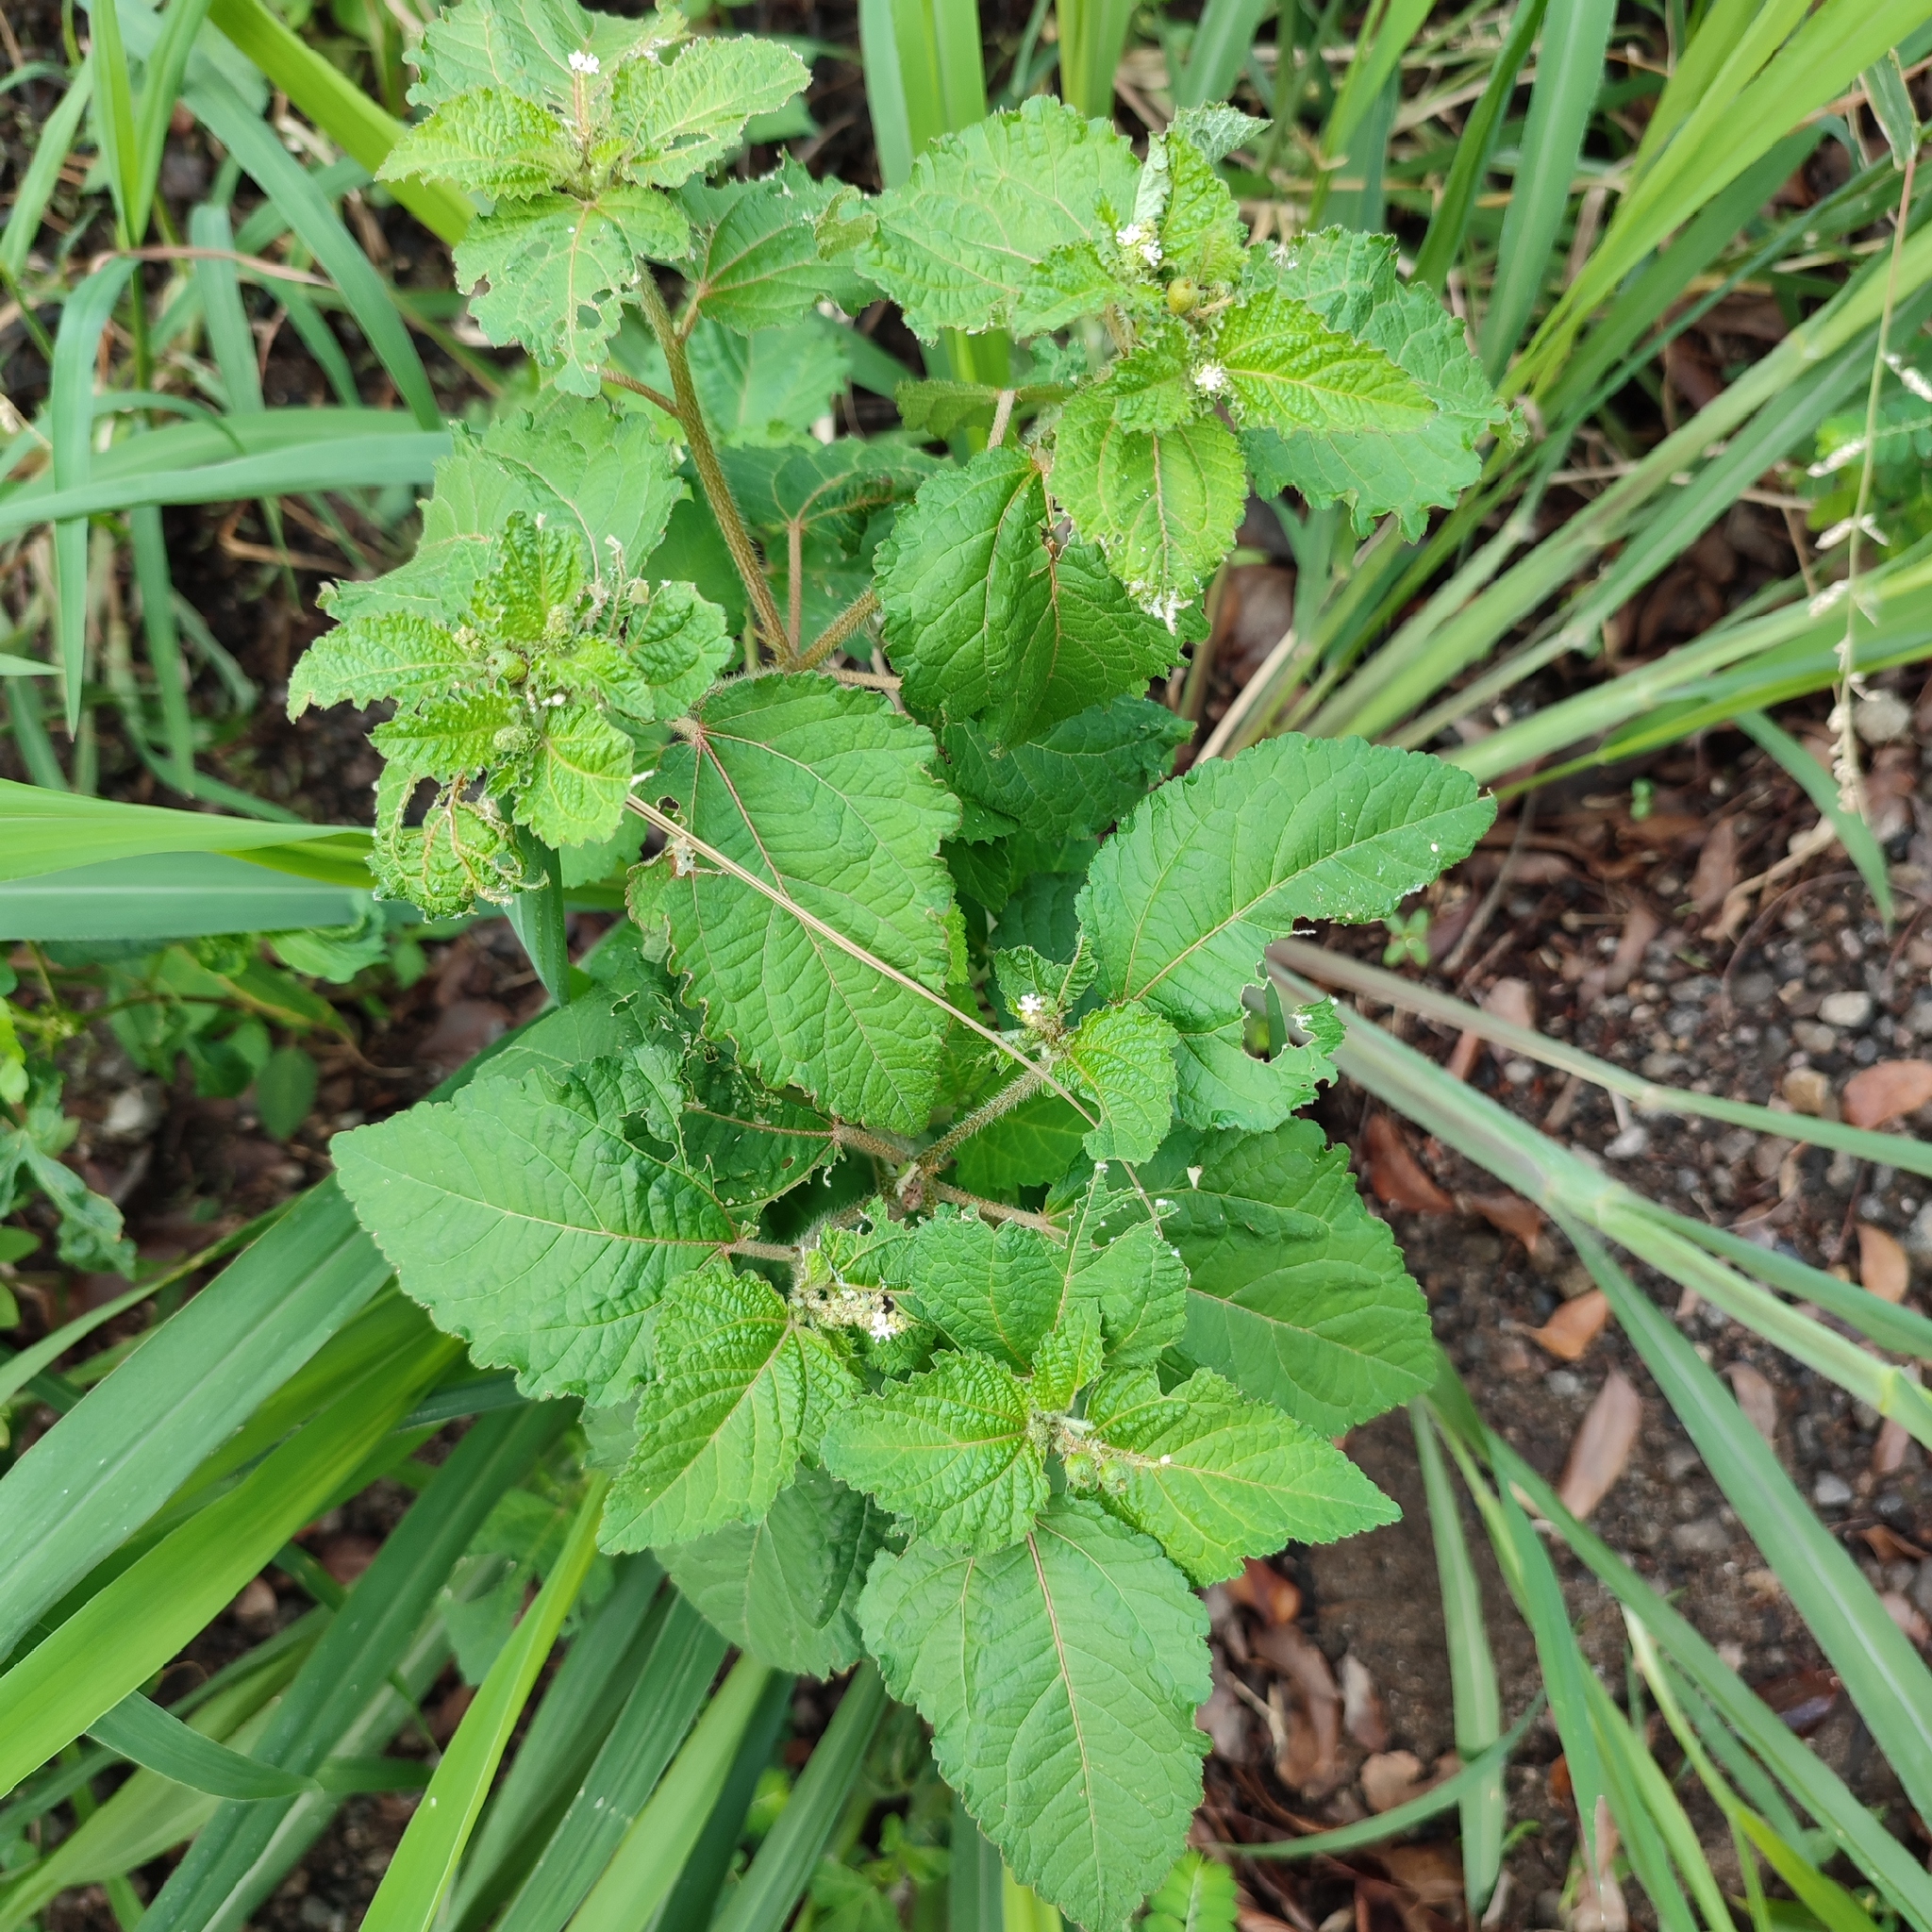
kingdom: Plantae
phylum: Tracheophyta
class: Magnoliopsida
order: Malpighiales
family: Euphorbiaceae
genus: Croton
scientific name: Croton hirtus
